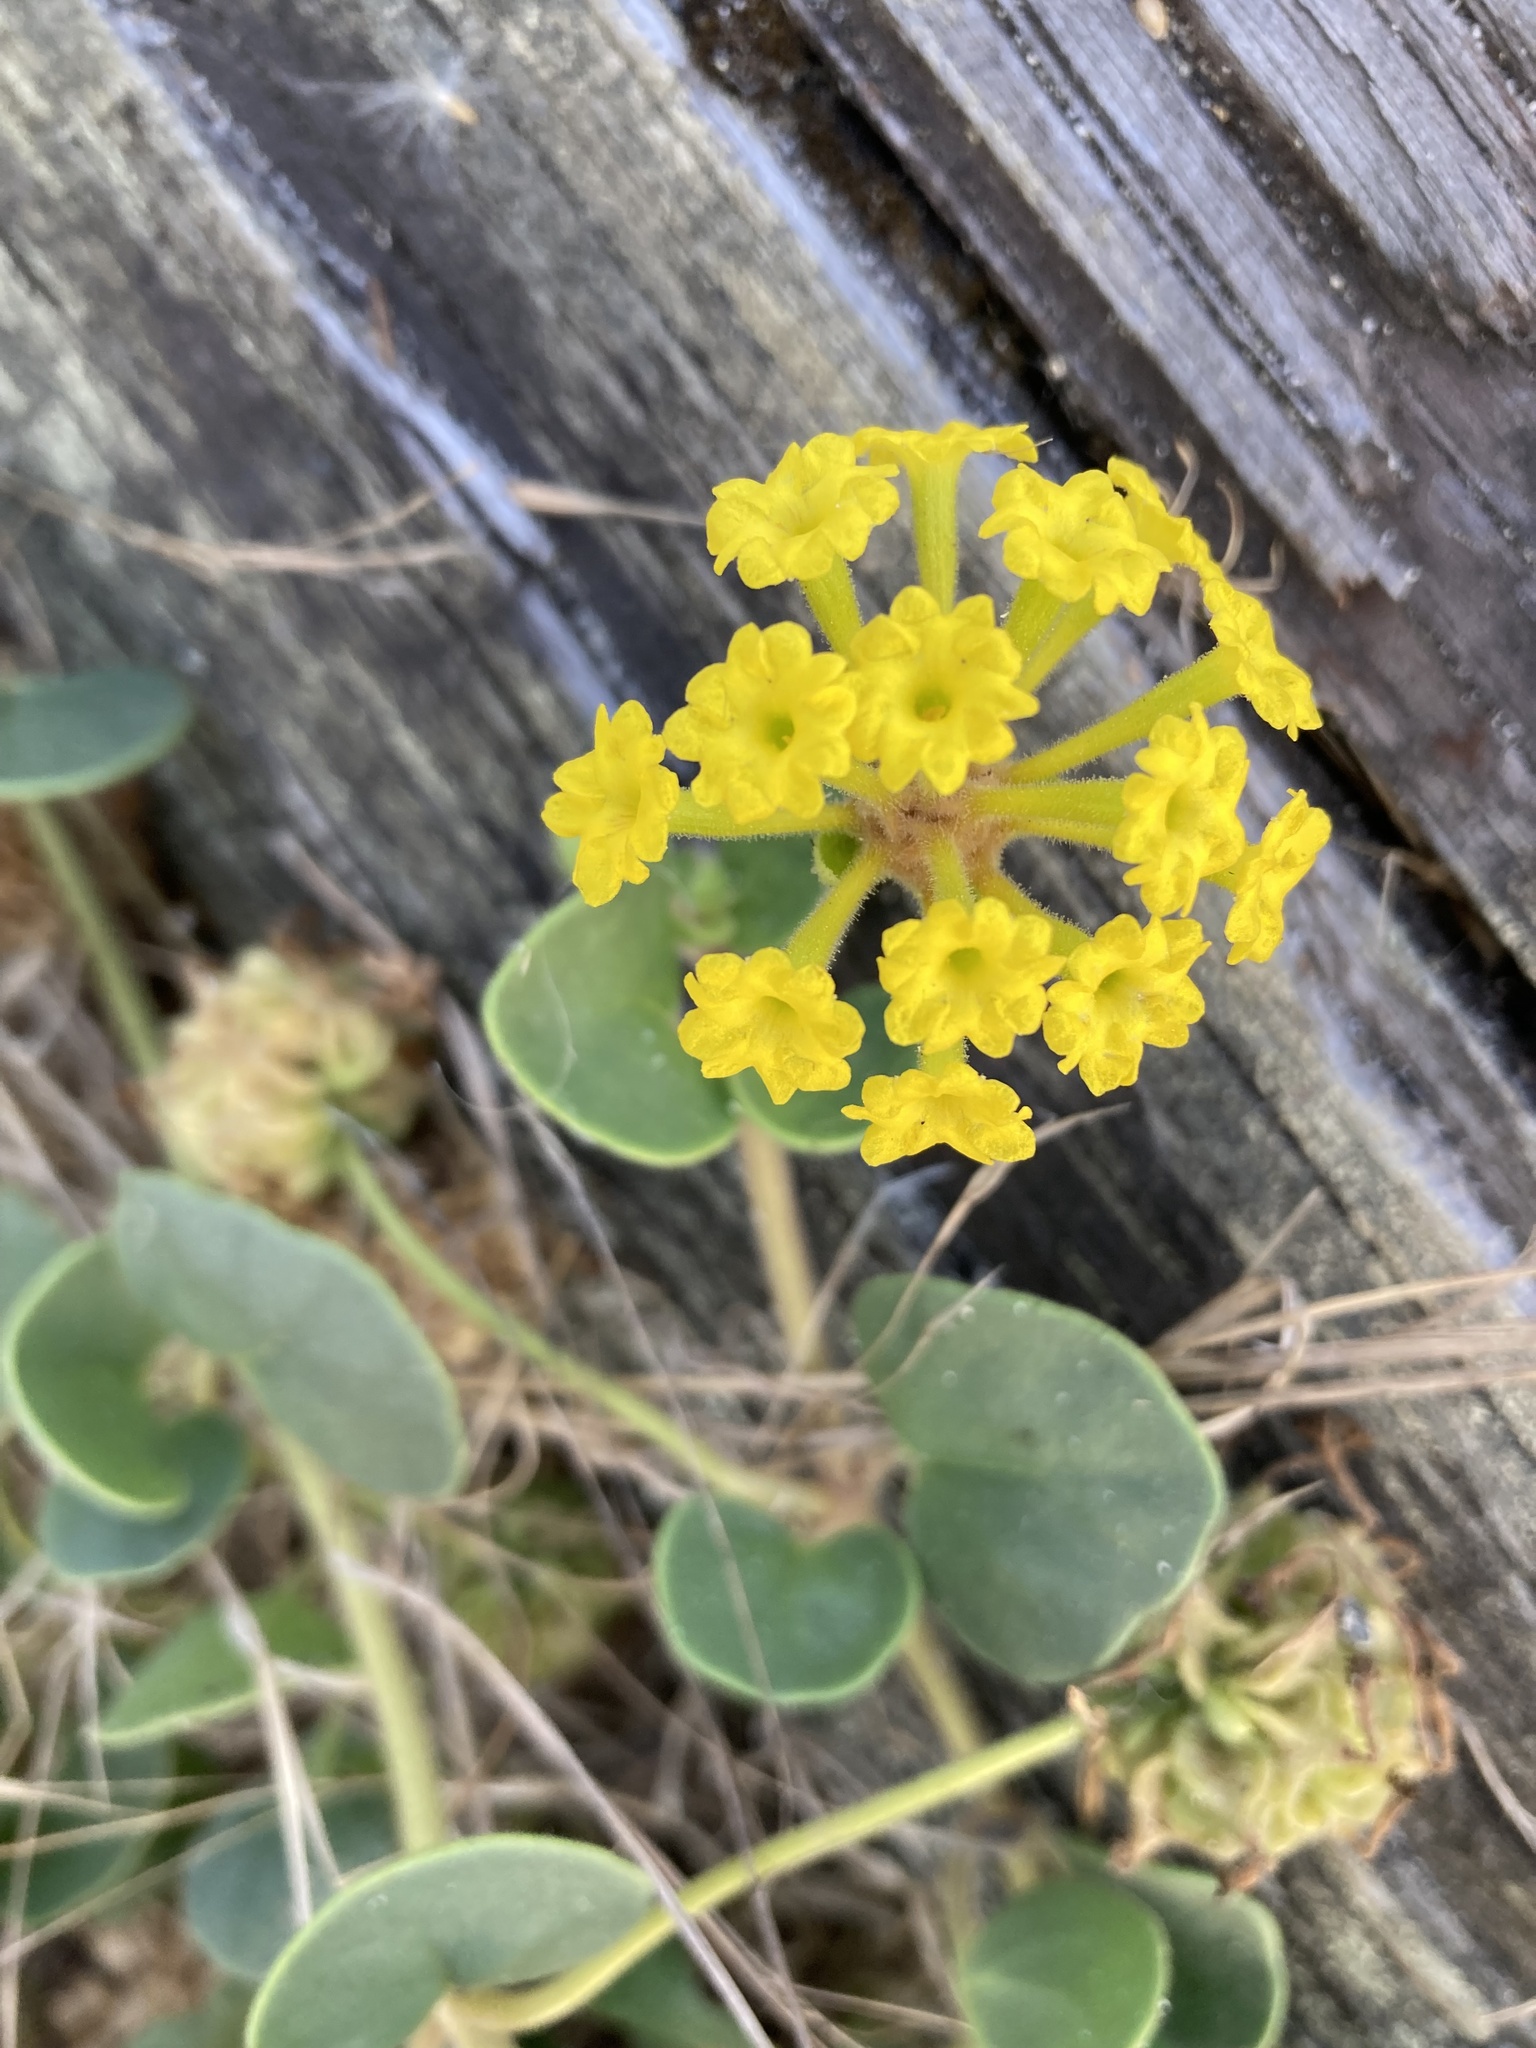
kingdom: Plantae
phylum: Tracheophyta
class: Magnoliopsida
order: Caryophyllales
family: Nyctaginaceae
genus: Abronia
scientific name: Abronia latifolia
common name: Yellow sand-verbena
